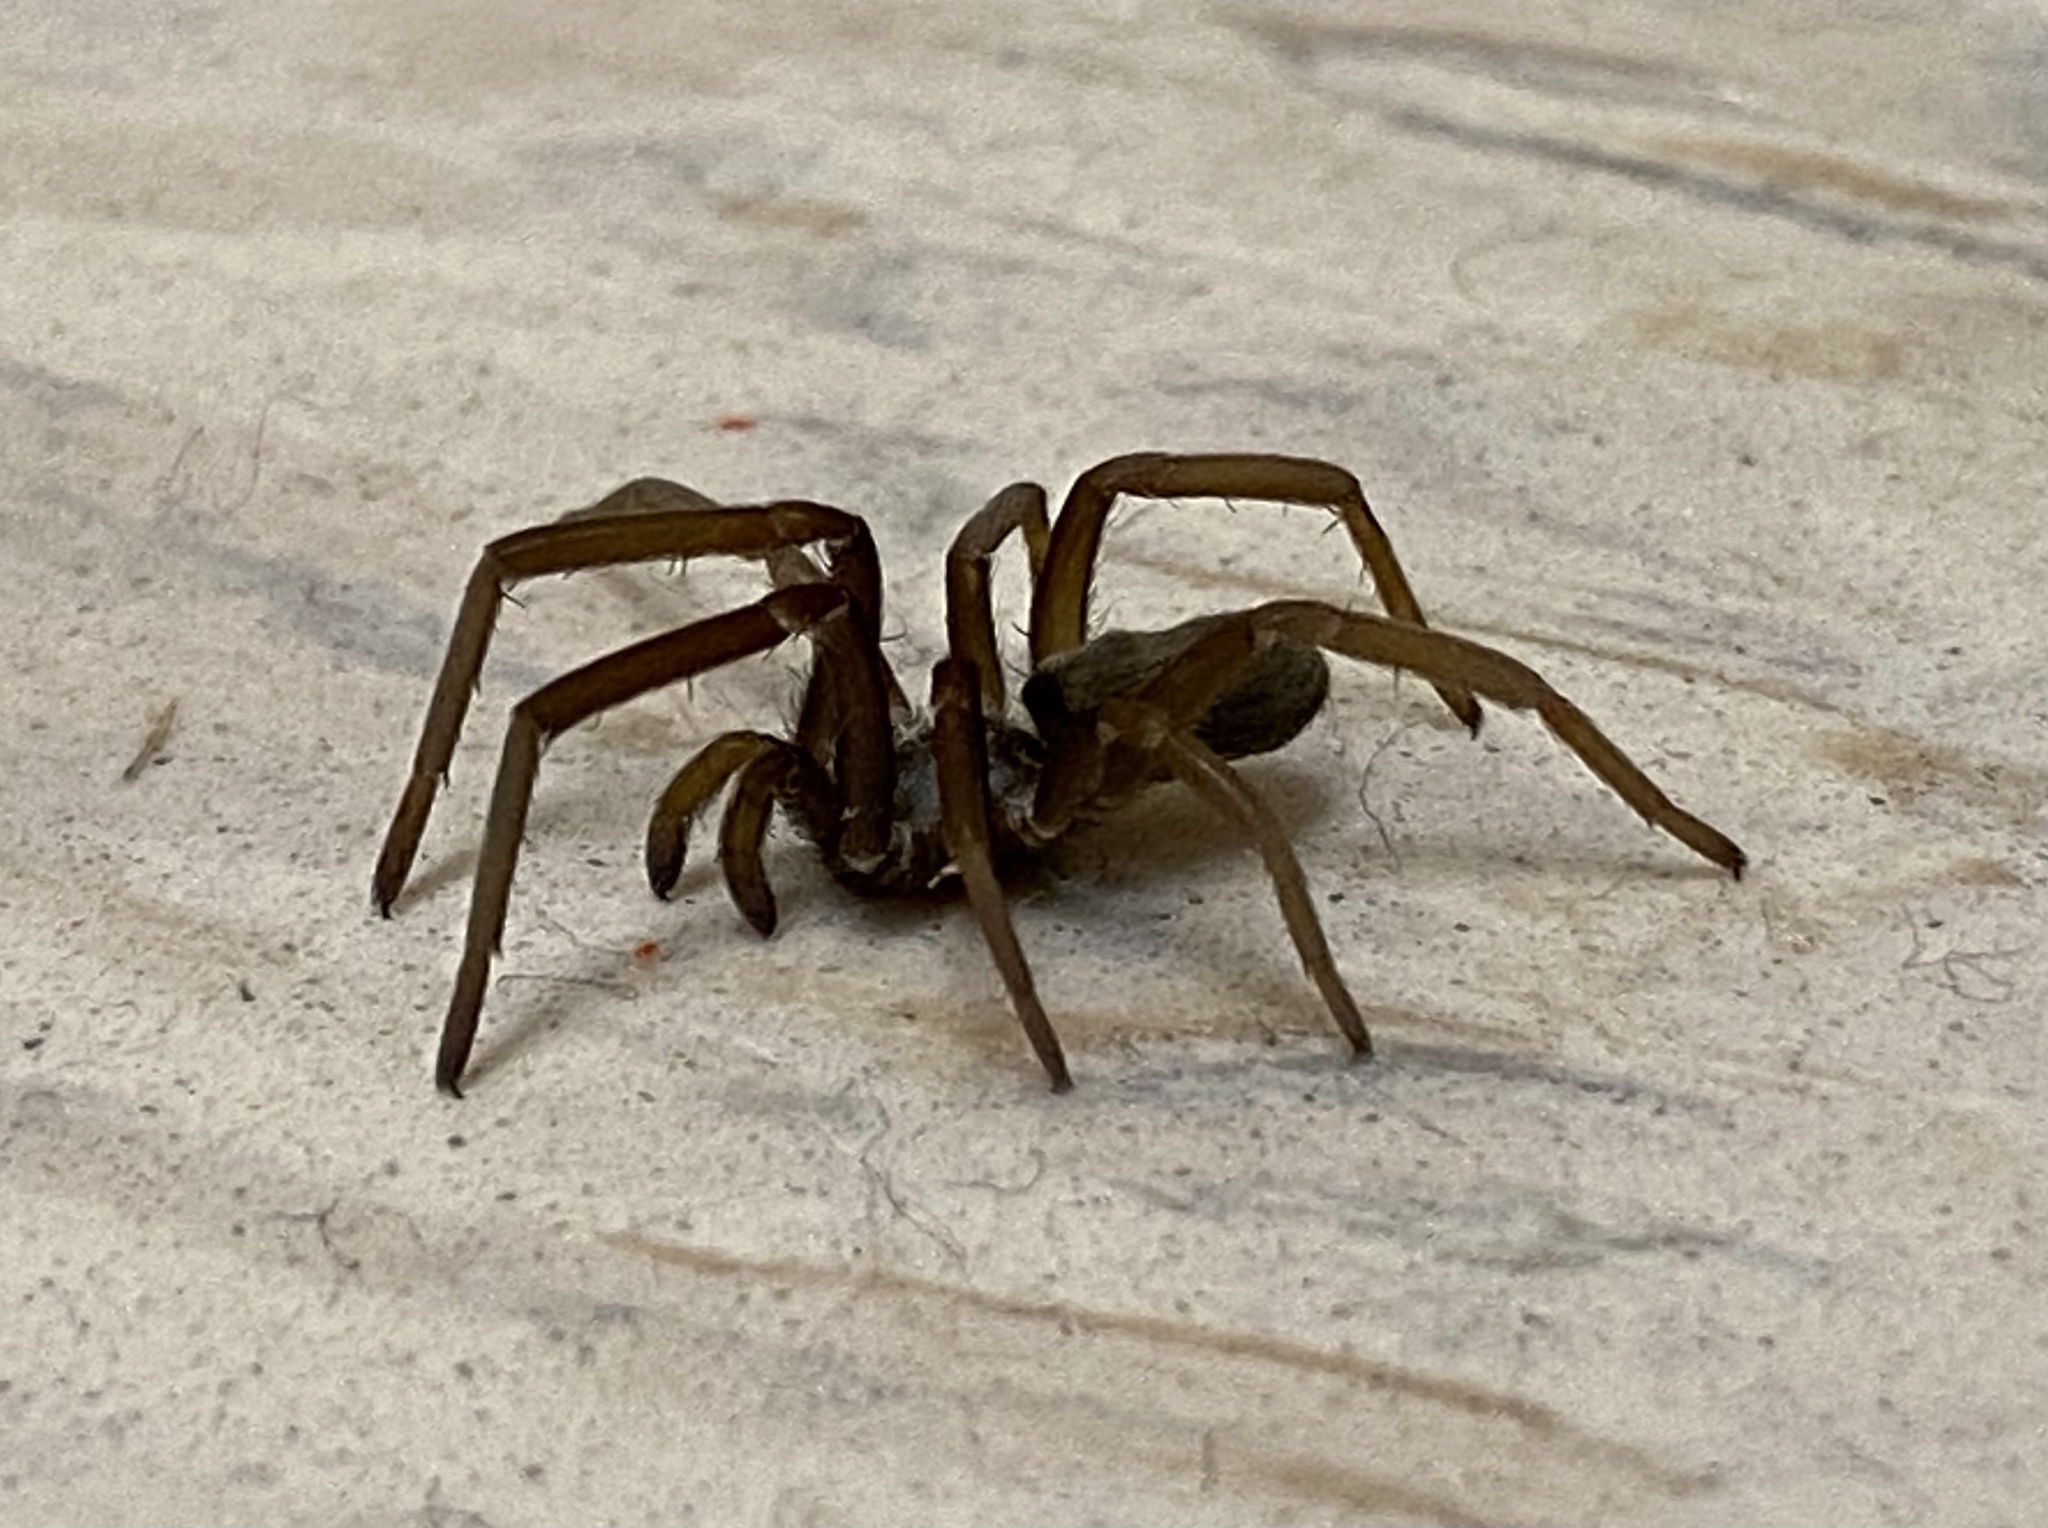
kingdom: Animalia
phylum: Arthropoda
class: Arachnida
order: Araneae
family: Filistatidae
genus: Kukulcania
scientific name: Kukulcania hibernalis
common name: Crevice weaver
